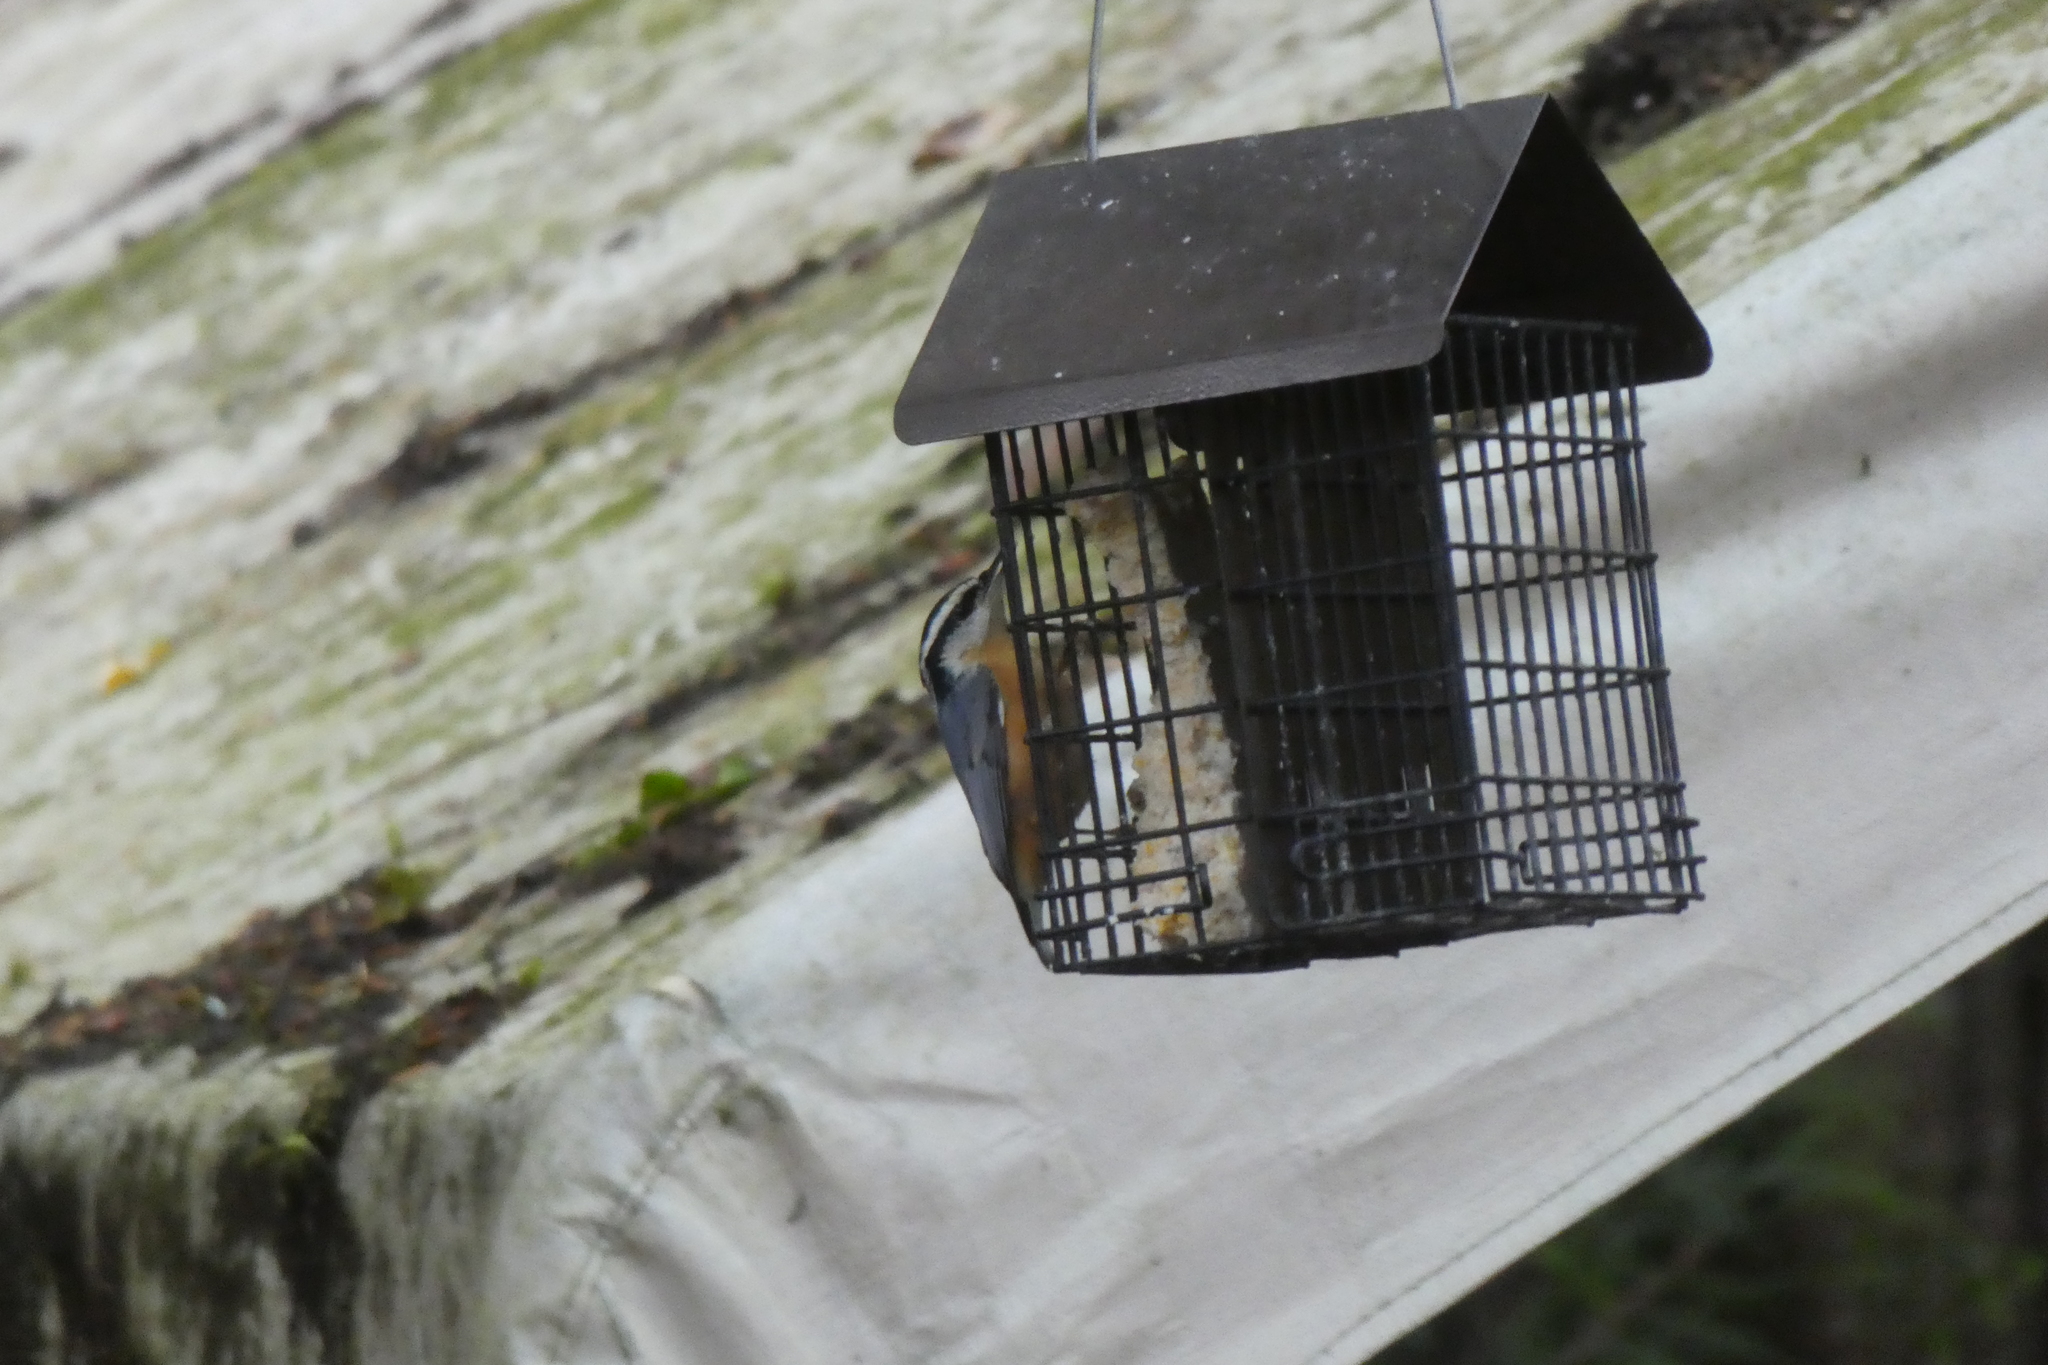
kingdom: Animalia
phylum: Chordata
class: Aves
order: Passeriformes
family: Sittidae
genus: Sitta
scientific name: Sitta canadensis
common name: Red-breasted nuthatch
